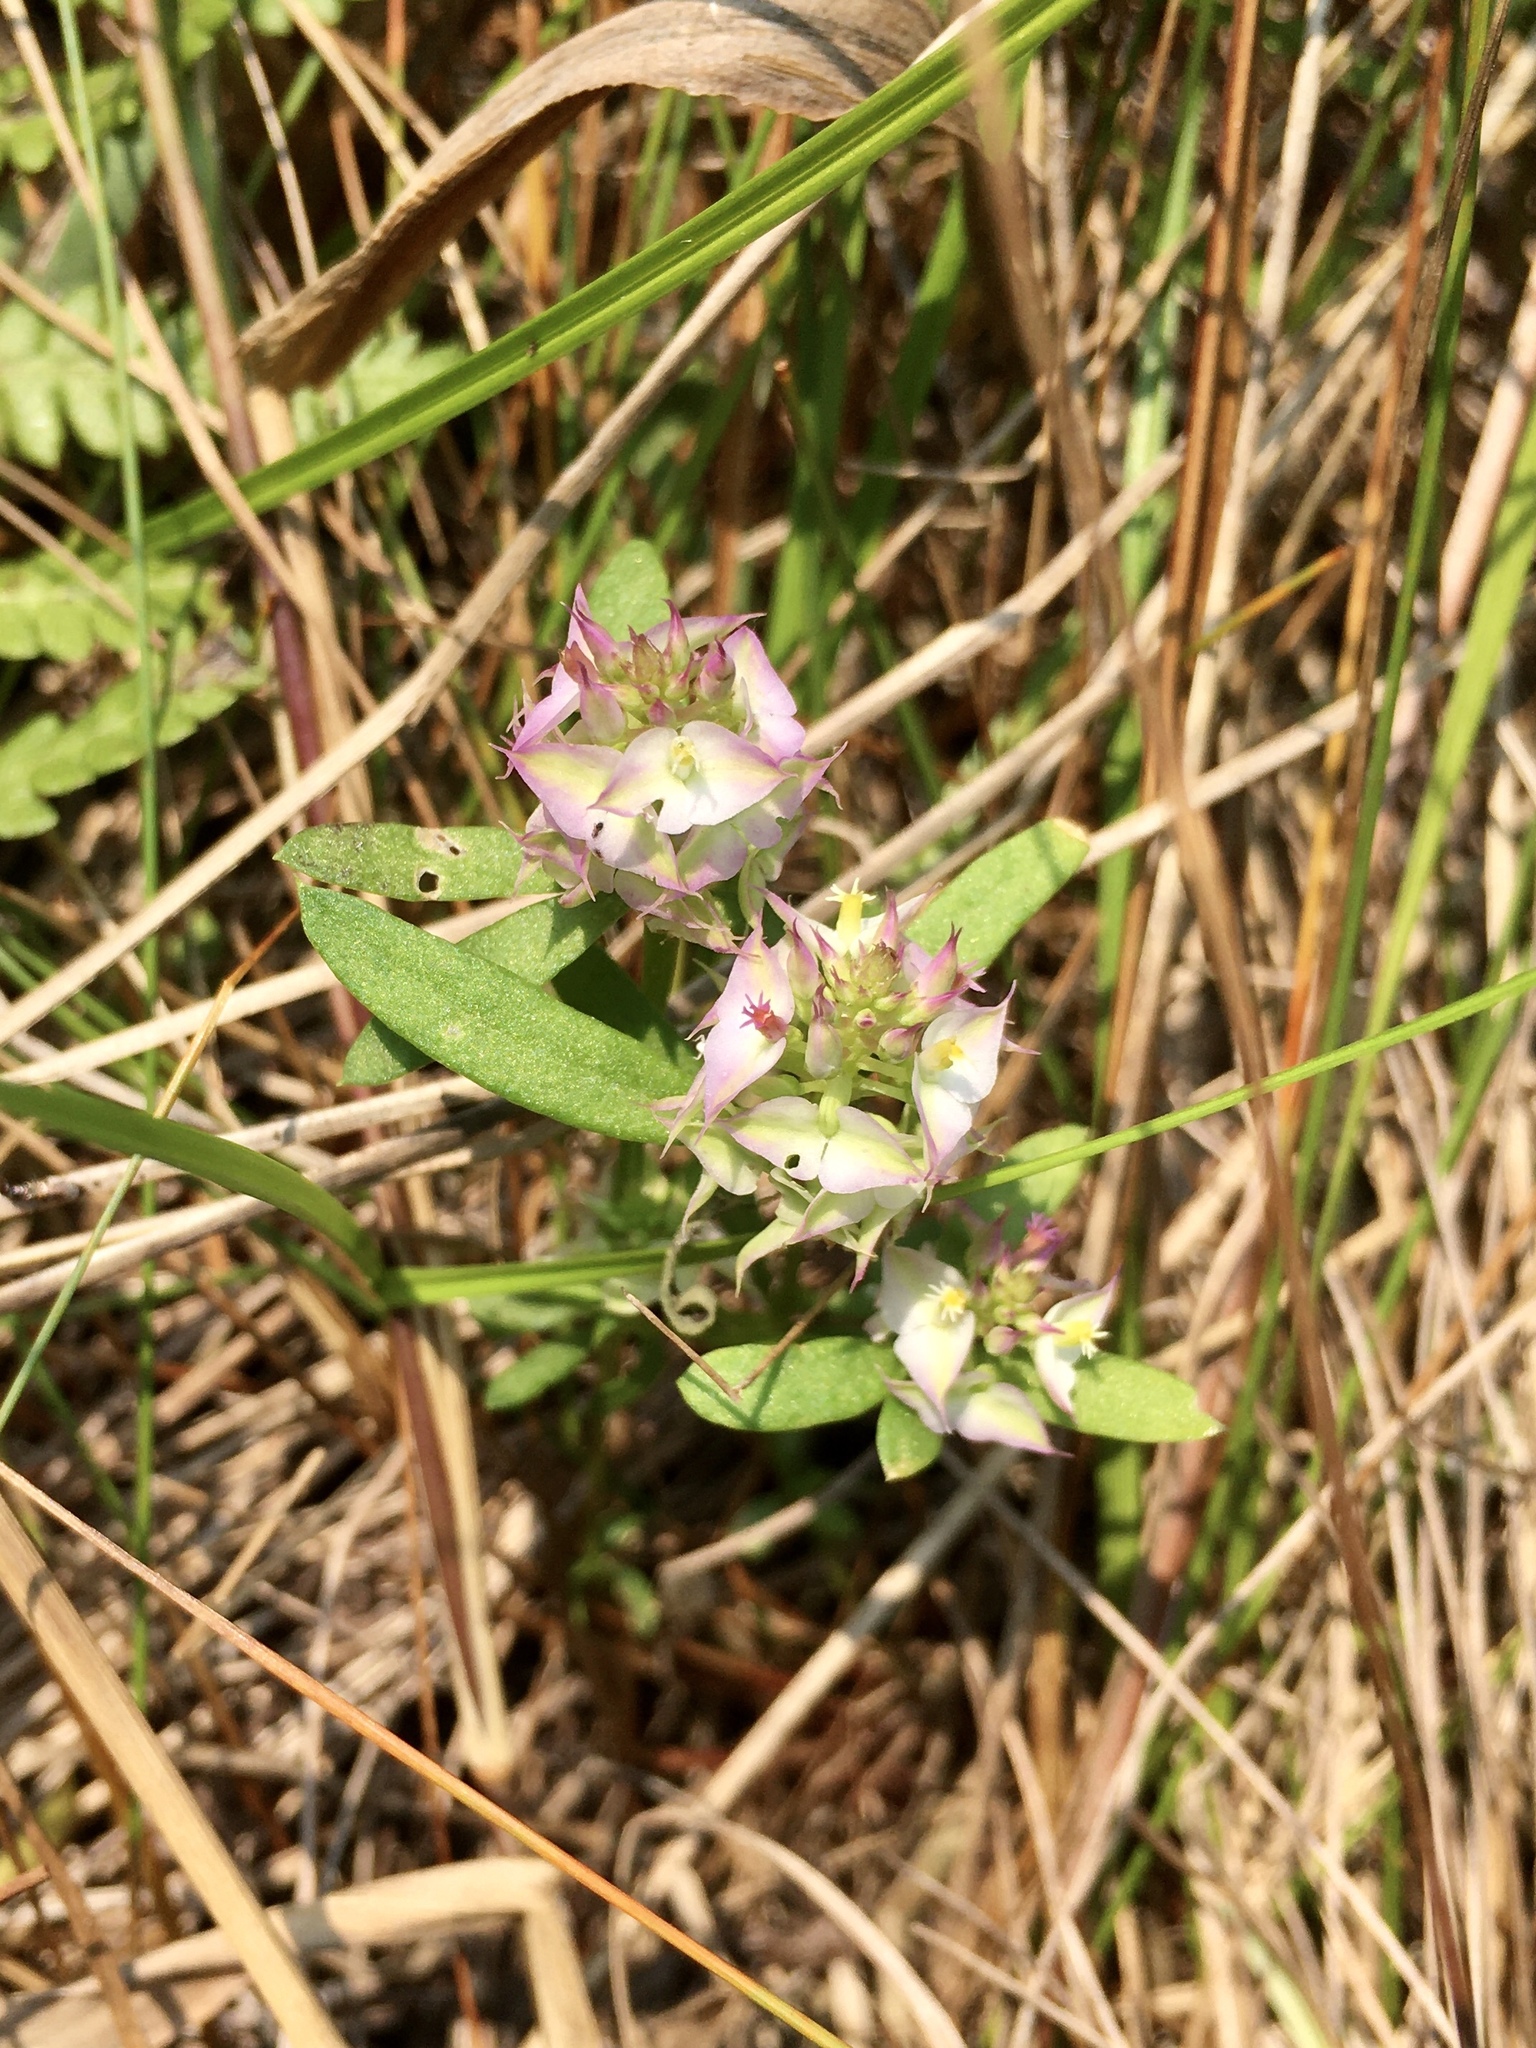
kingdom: Plantae
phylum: Tracheophyta
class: Magnoliopsida
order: Fabales
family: Polygalaceae
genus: Polygala
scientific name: Polygala cruciata
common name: Drumheads
